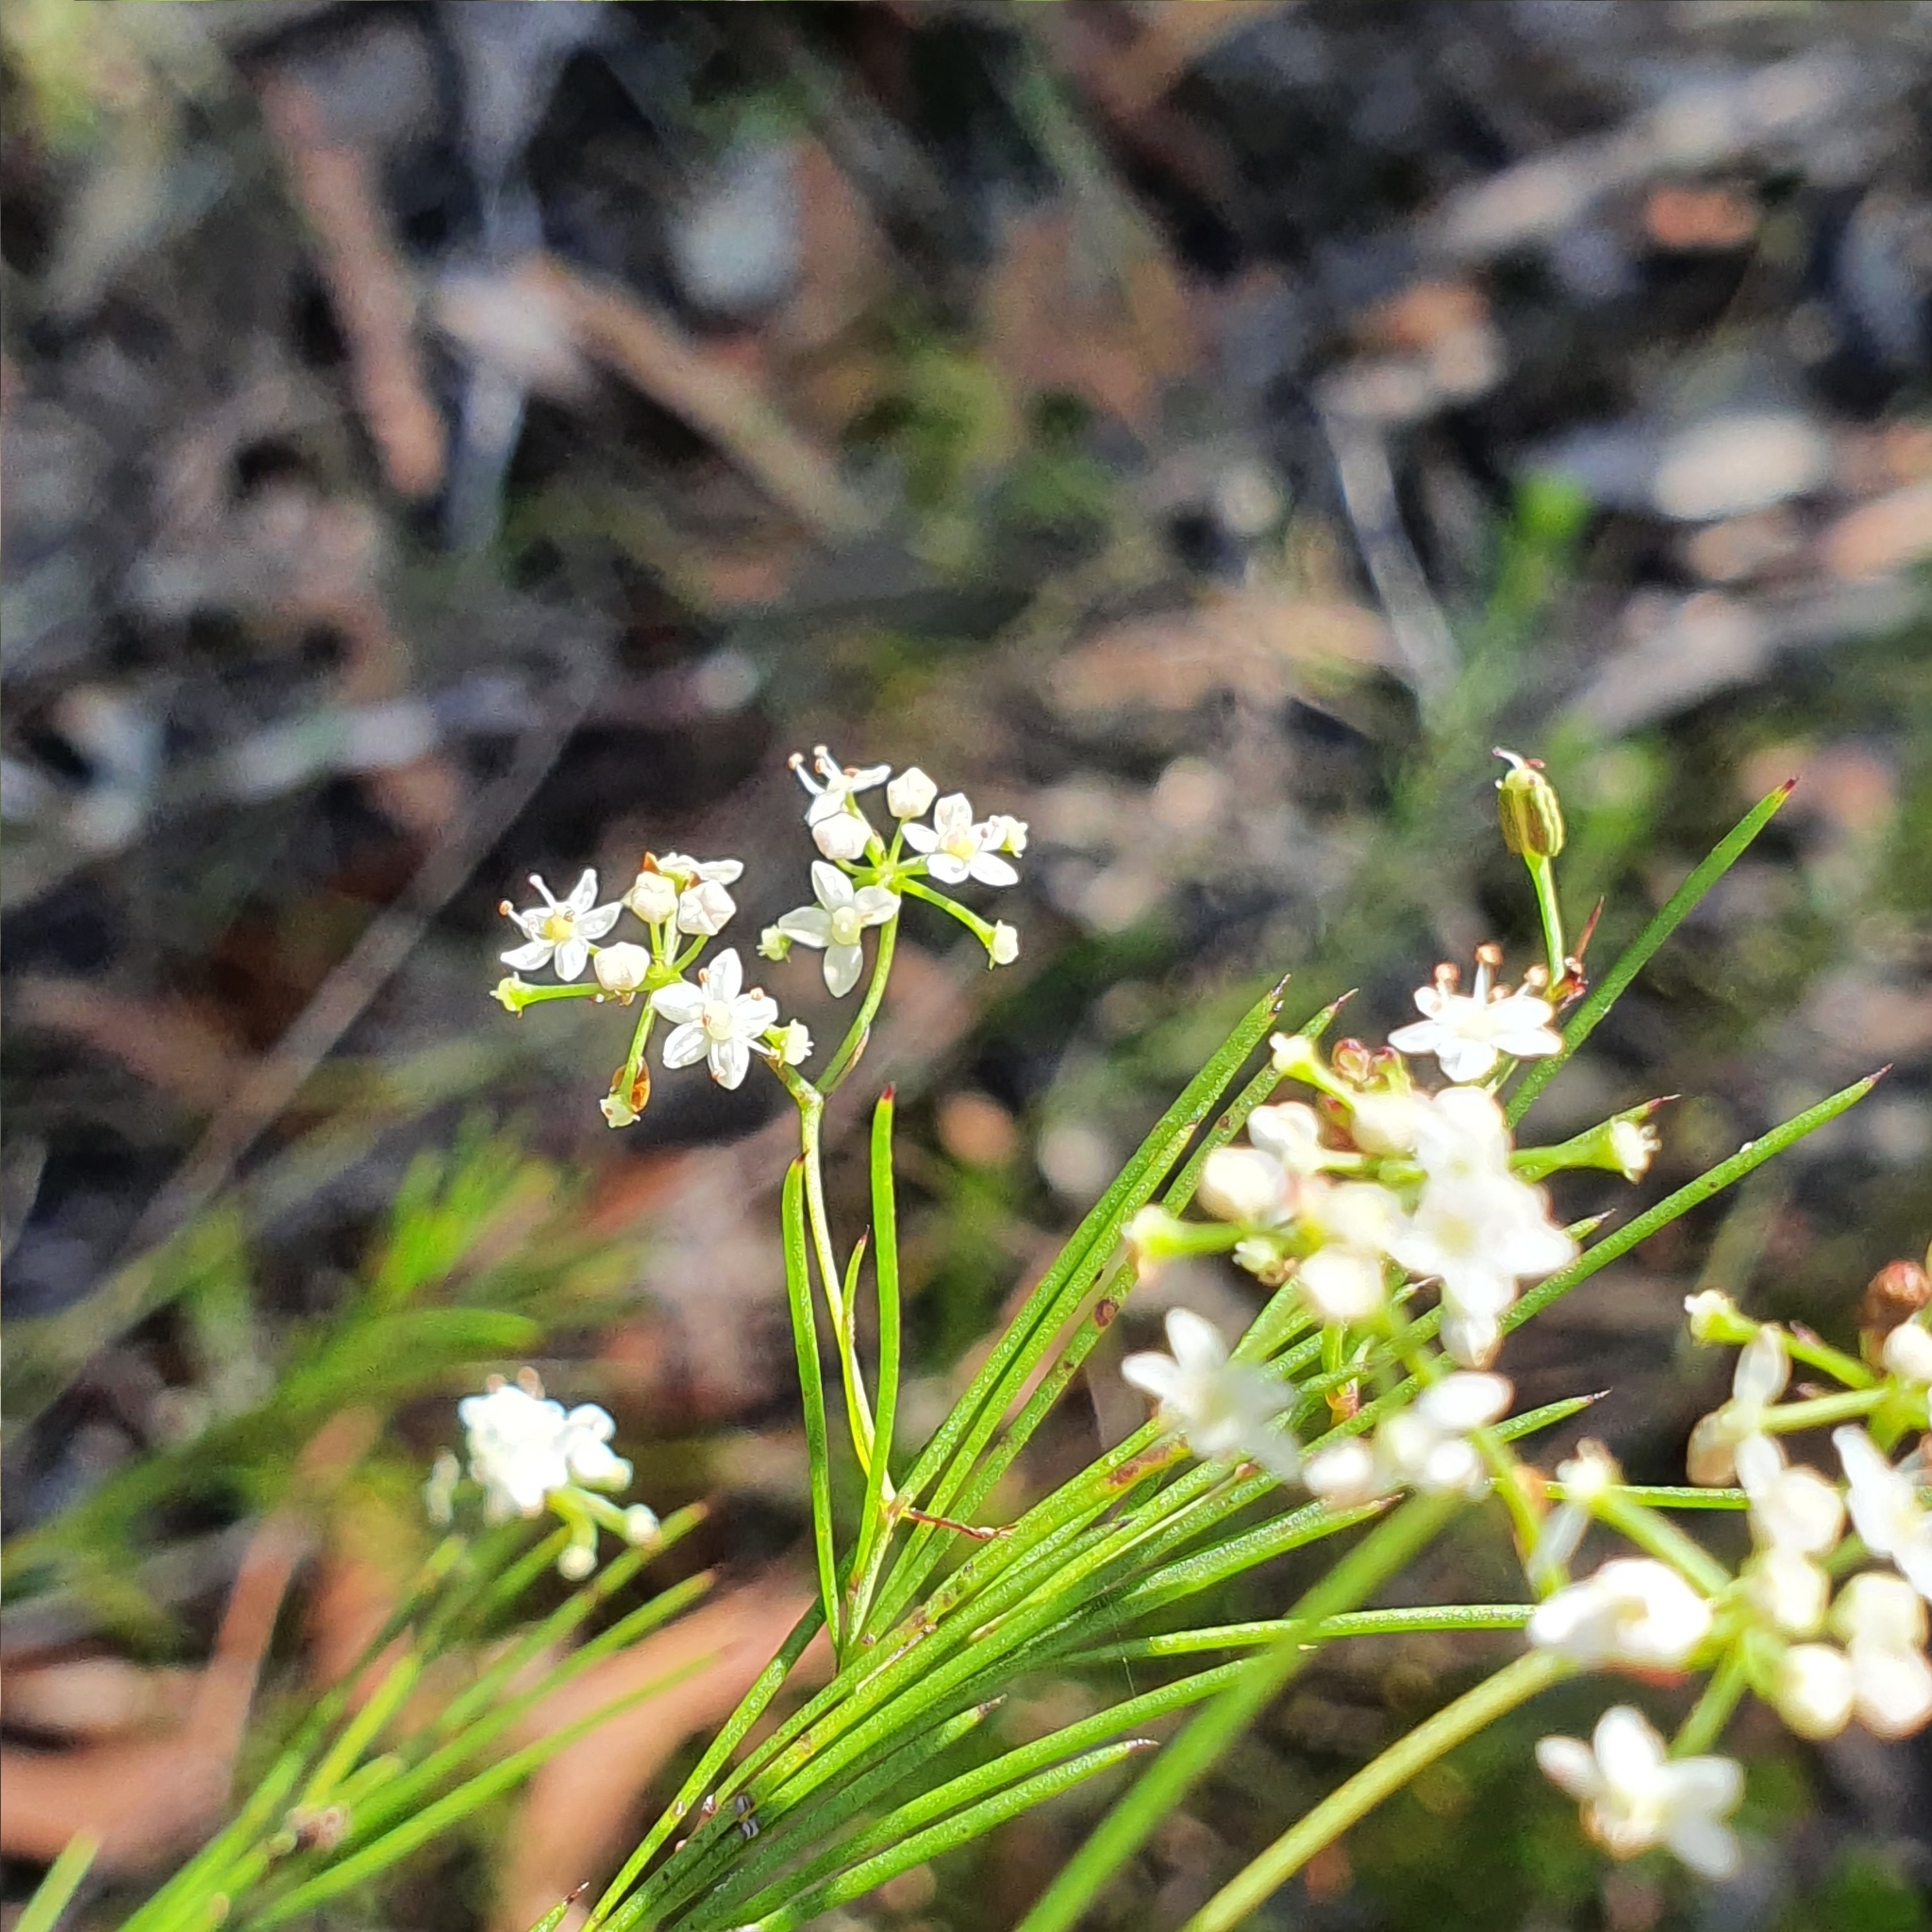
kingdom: Plantae
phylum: Tracheophyta
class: Magnoliopsida
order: Apiales
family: Apiaceae
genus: Platysace
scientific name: Platysace linearifolia
